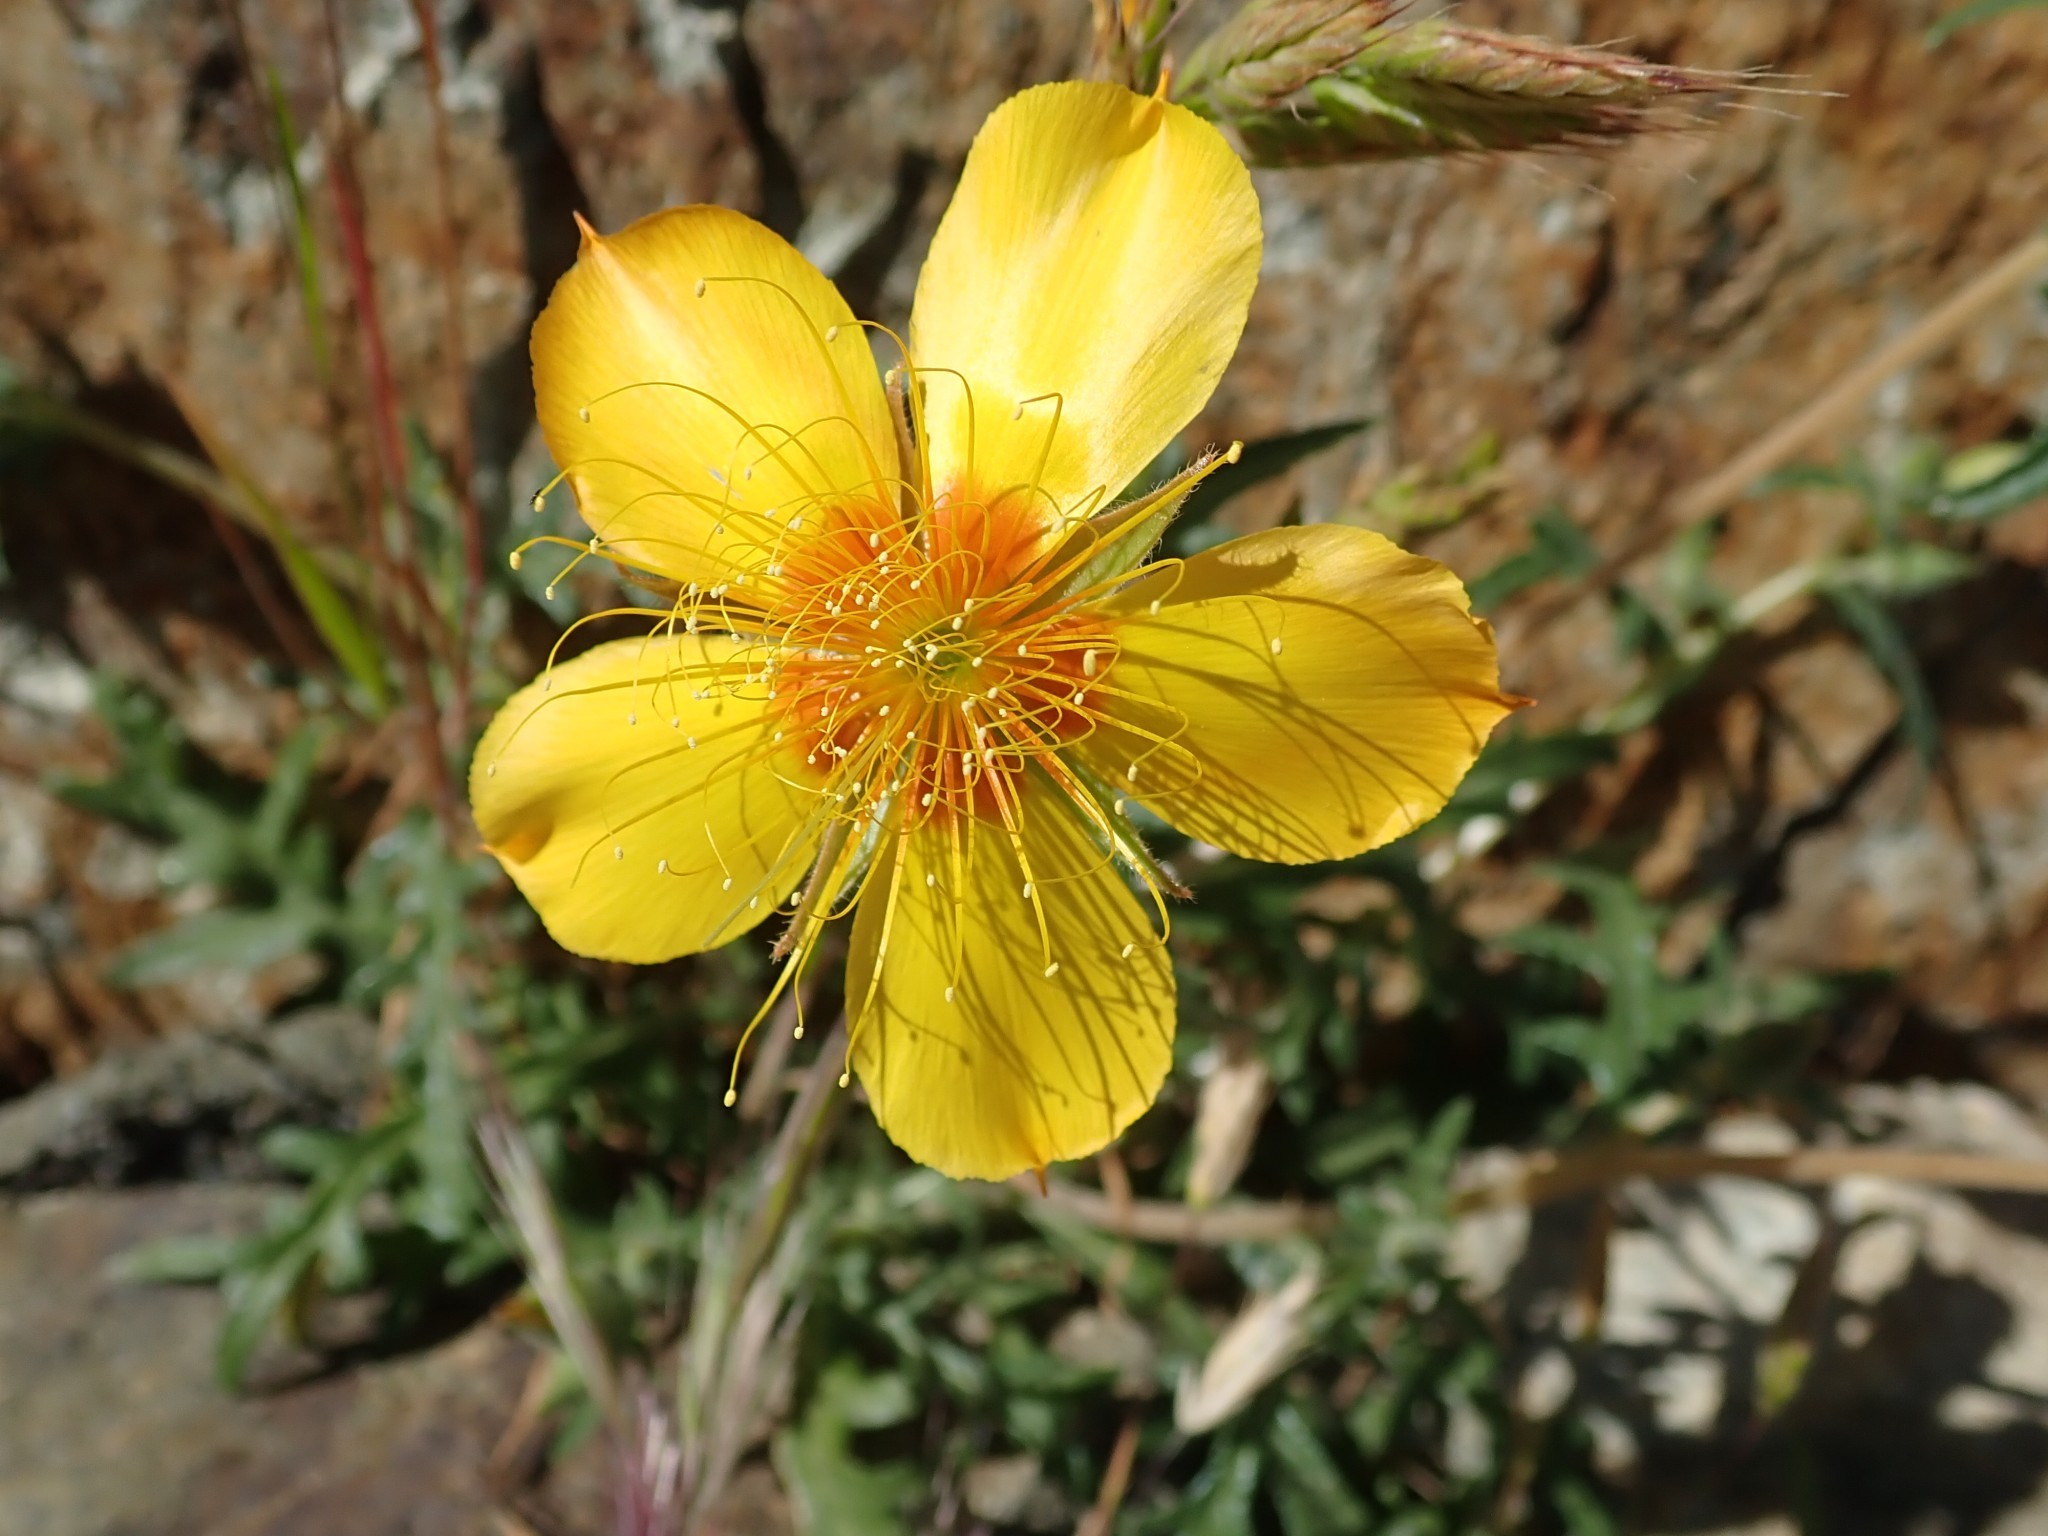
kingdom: Plantae
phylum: Tracheophyta
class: Magnoliopsida
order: Cornales
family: Loasaceae
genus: Mentzelia
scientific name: Mentzelia lindleyi
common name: Golden bartonia
